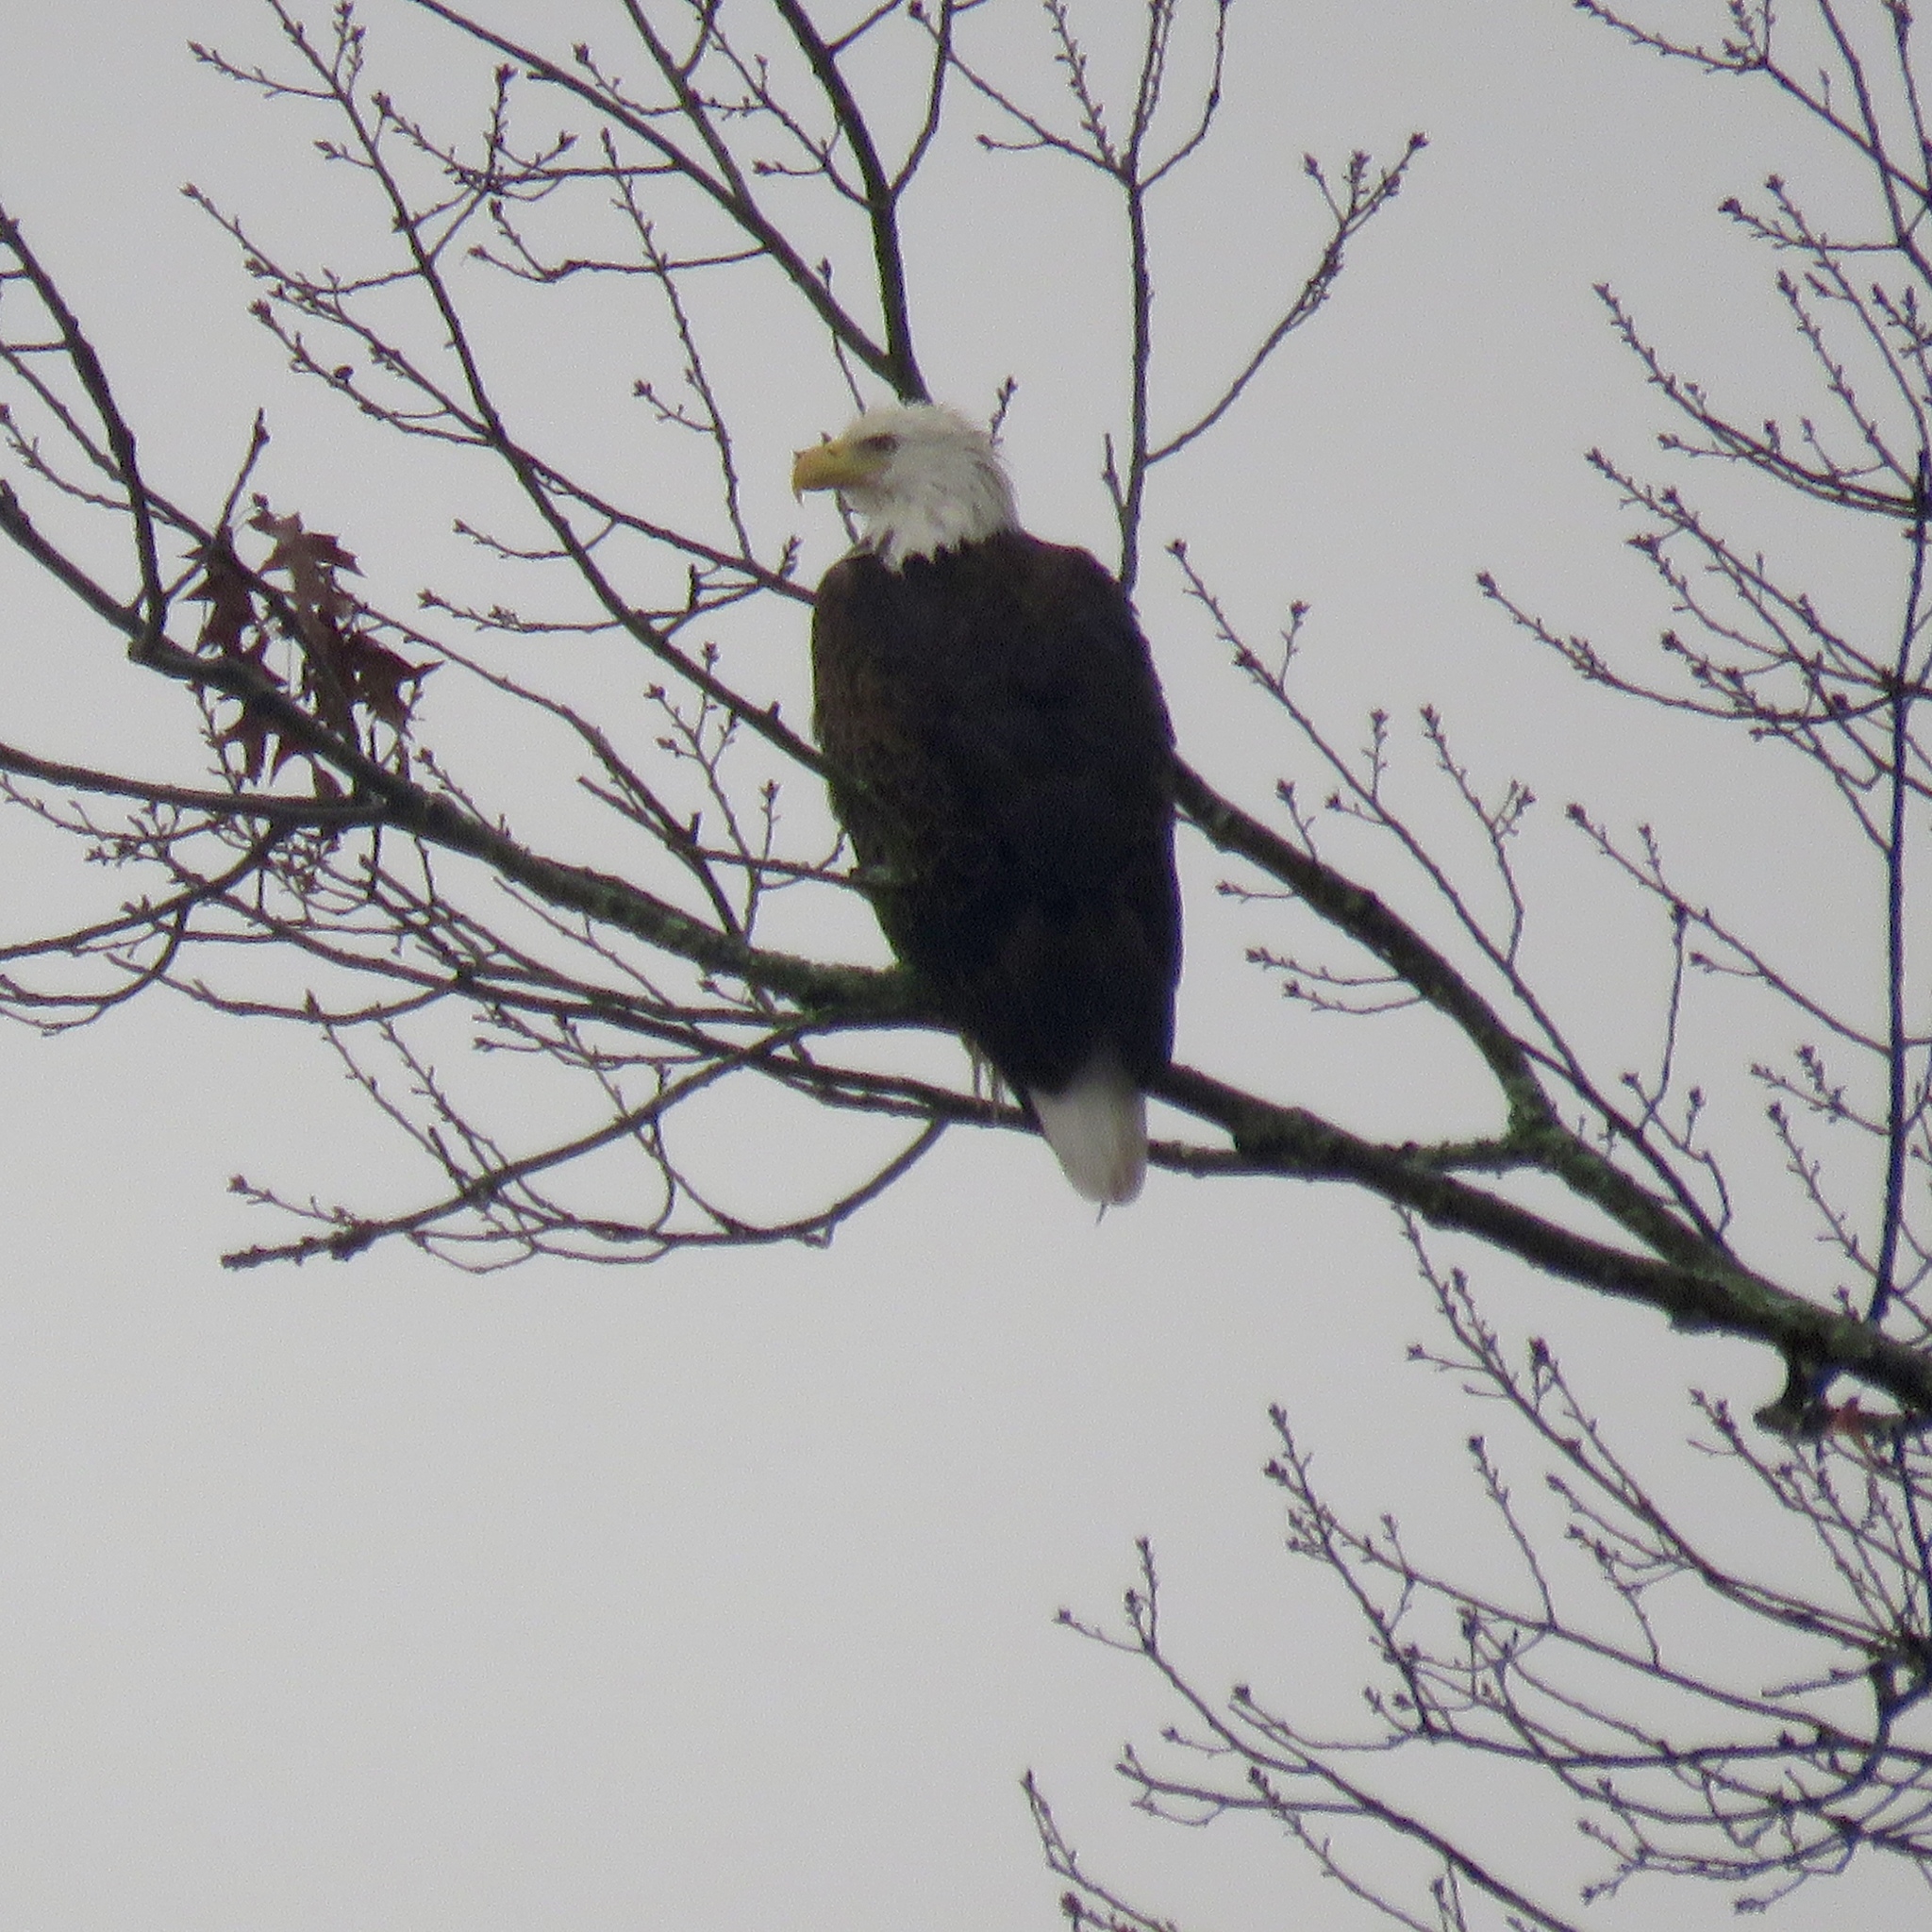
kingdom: Animalia
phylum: Chordata
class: Aves
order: Accipitriformes
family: Accipitridae
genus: Haliaeetus
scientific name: Haliaeetus leucocephalus
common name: Bald eagle
